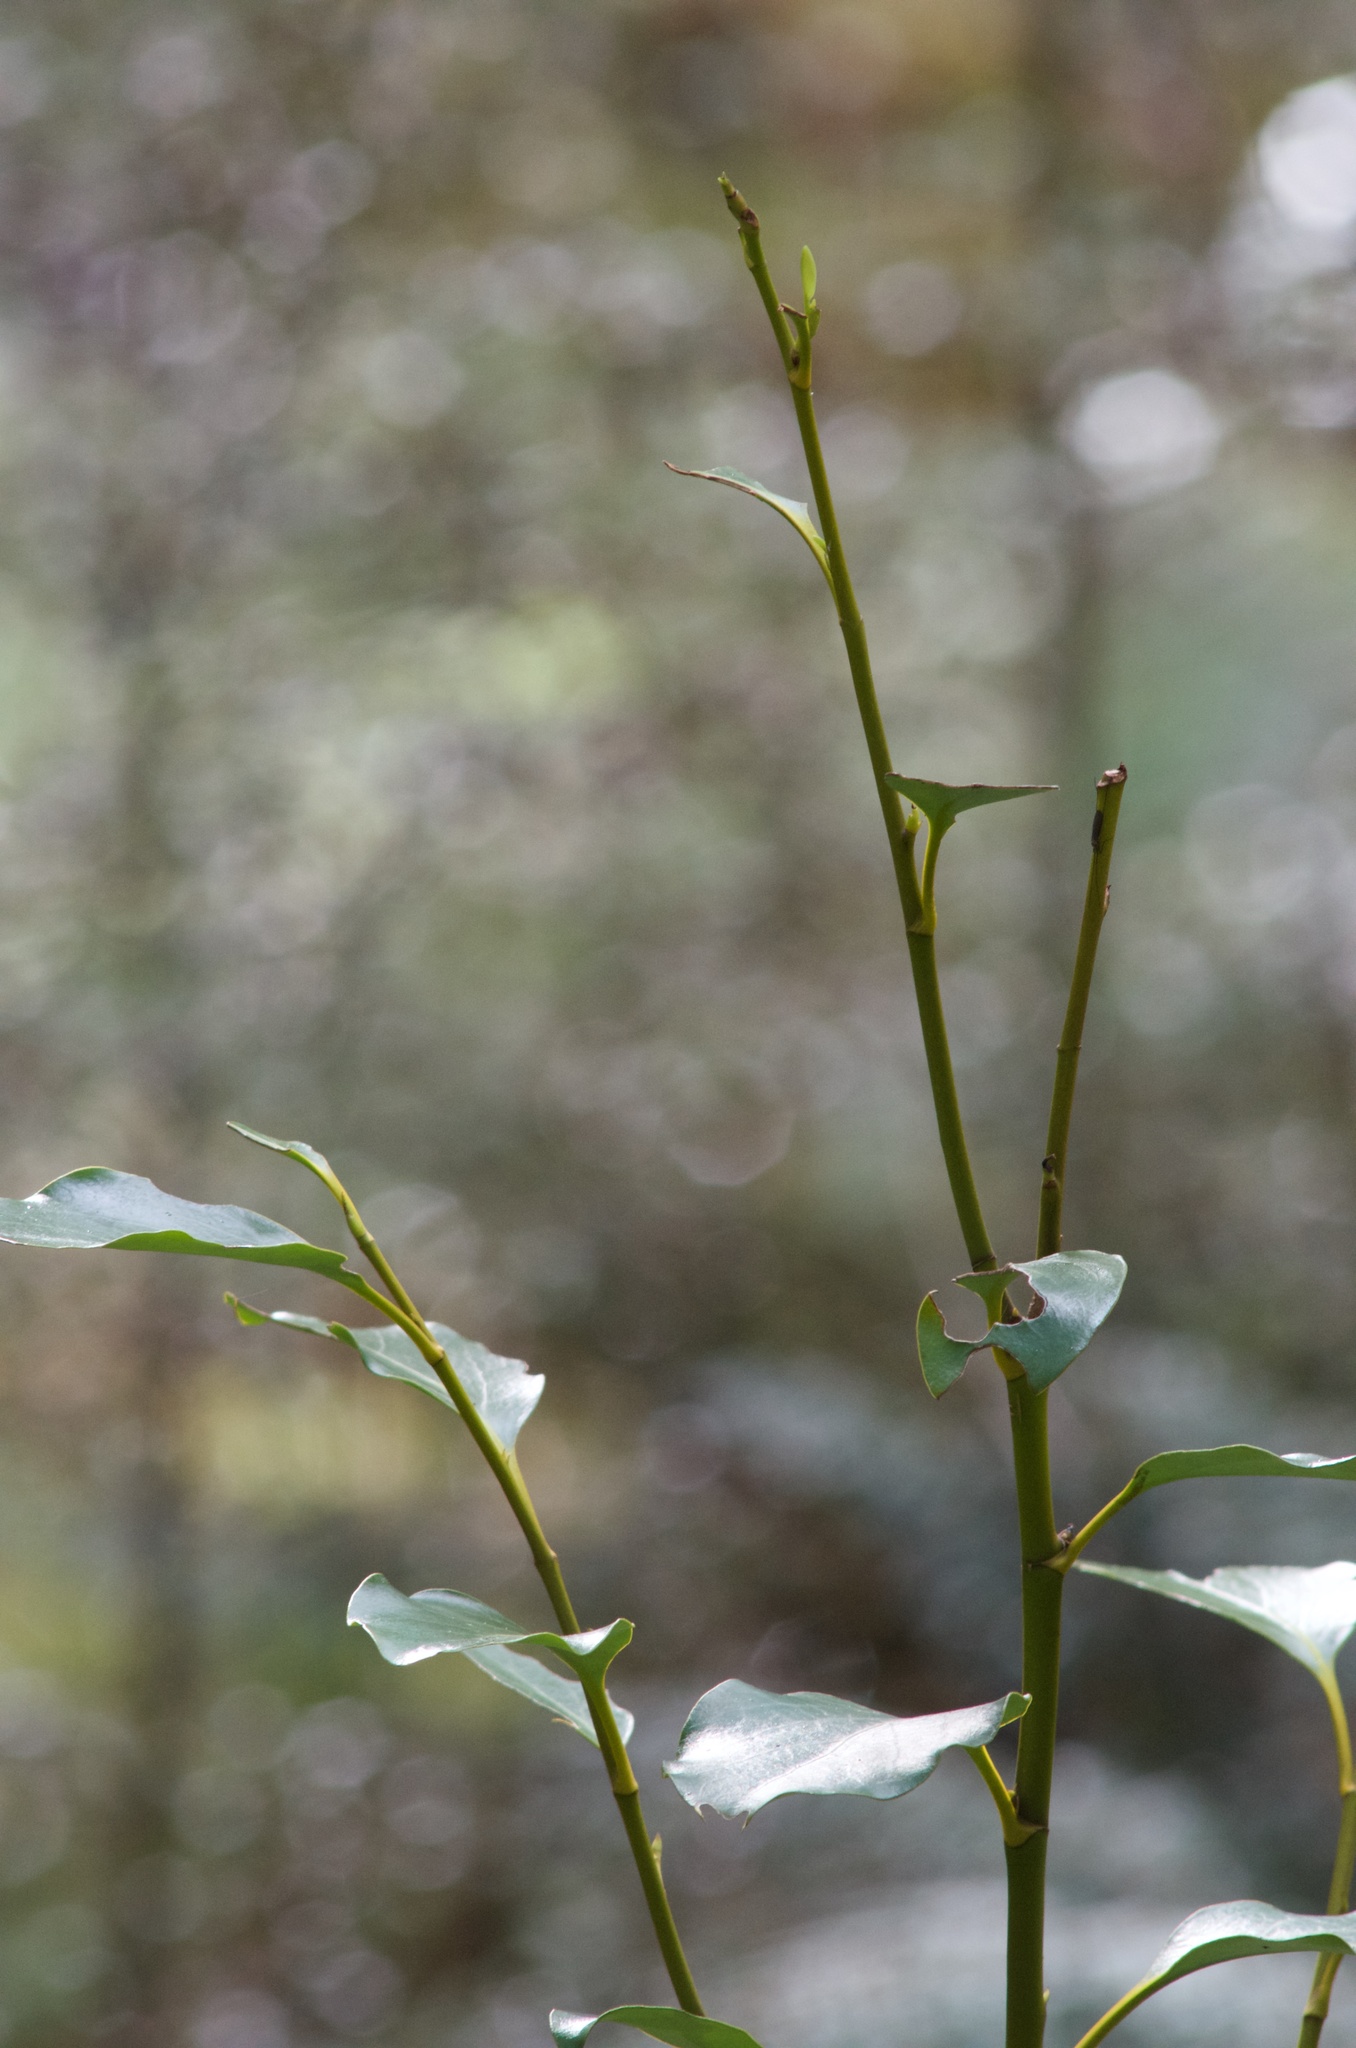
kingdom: Plantae
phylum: Tracheophyta
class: Magnoliopsida
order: Apiales
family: Griseliniaceae
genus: Griselinia
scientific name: Griselinia littoralis
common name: New zealand broadleaf
